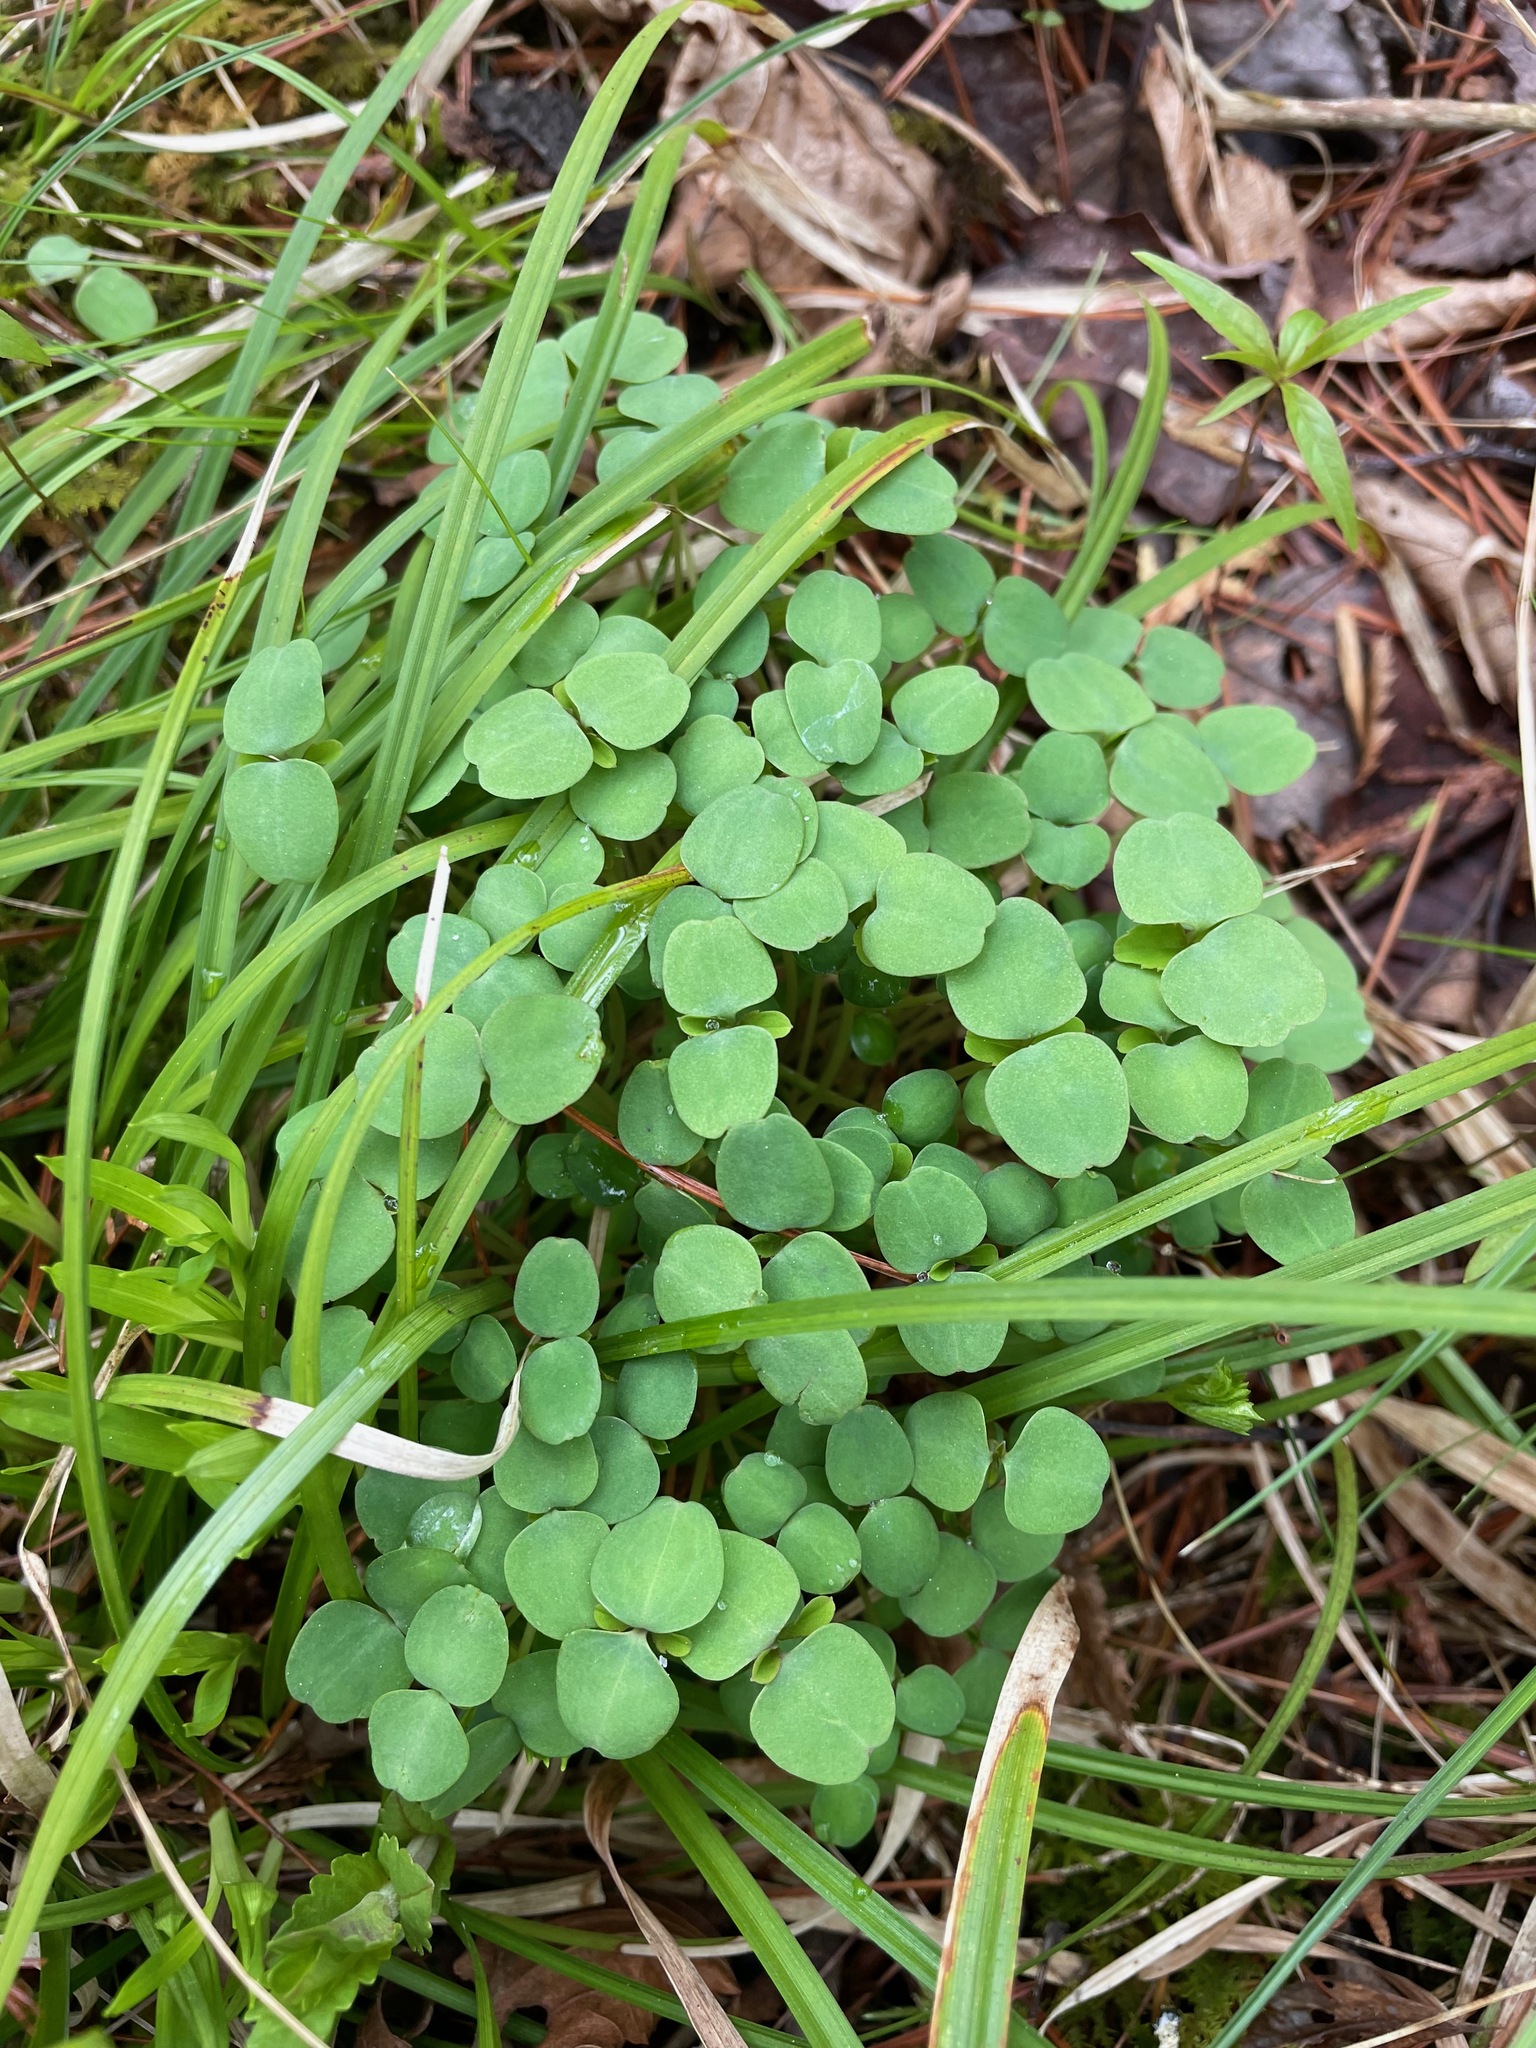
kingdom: Plantae
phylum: Tracheophyta
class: Magnoliopsida
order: Ericales
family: Balsaminaceae
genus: Impatiens
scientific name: Impatiens
